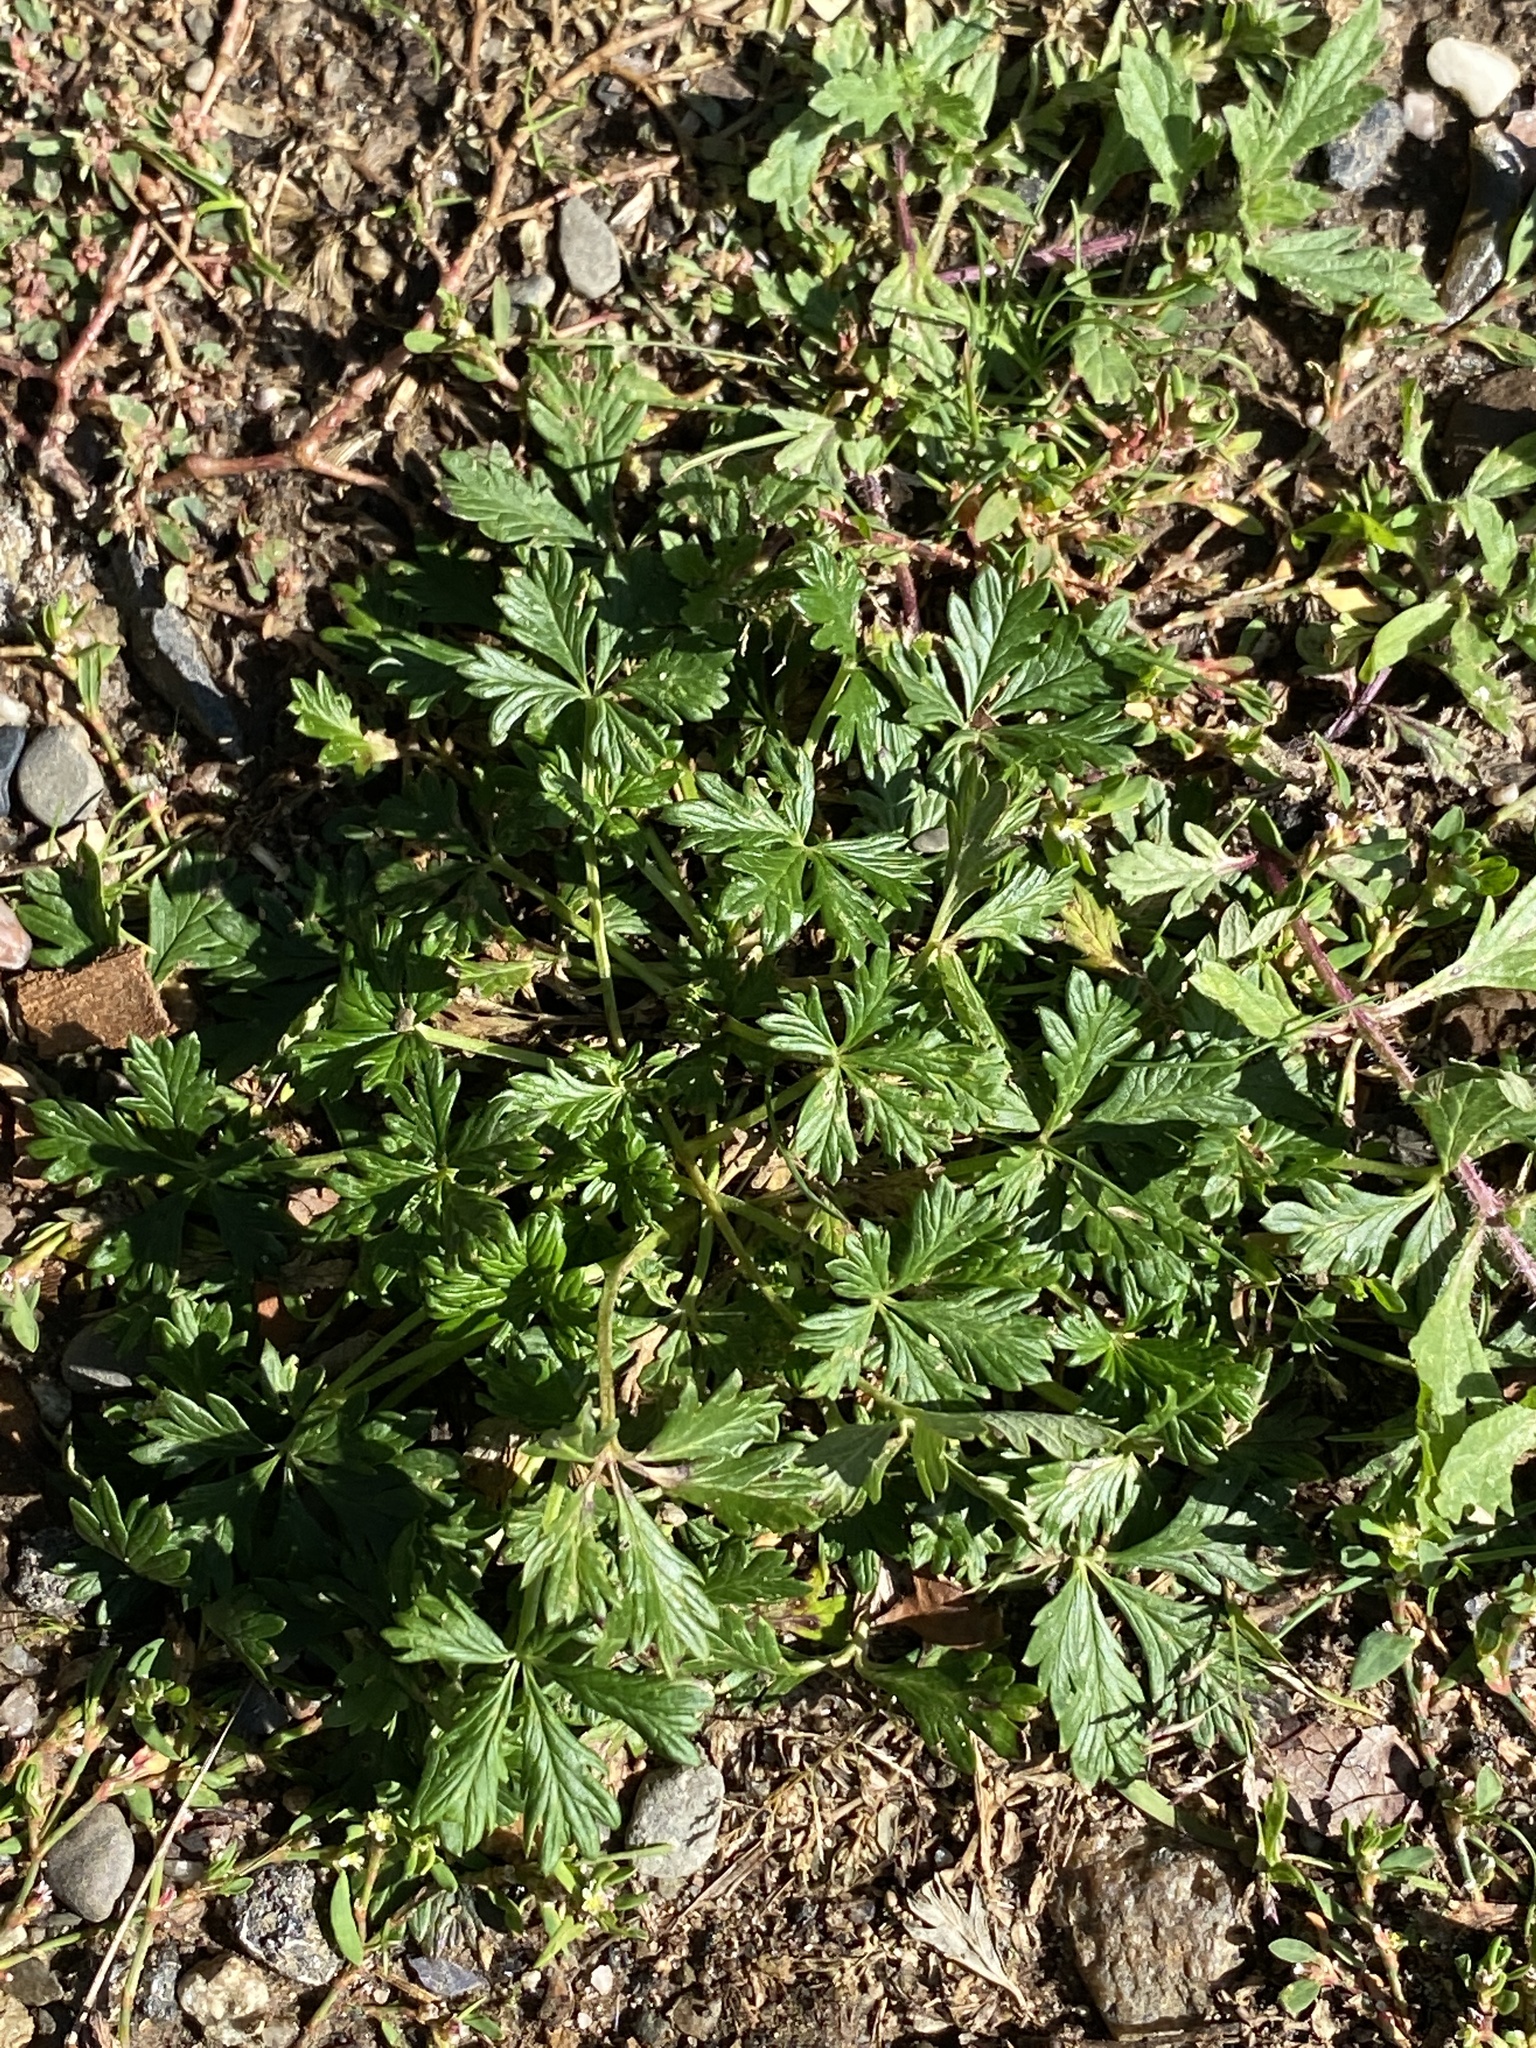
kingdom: Plantae
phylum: Tracheophyta
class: Magnoliopsida
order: Rosales
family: Rosaceae
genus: Potentilla
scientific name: Potentilla argentea
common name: Hoary cinquefoil
